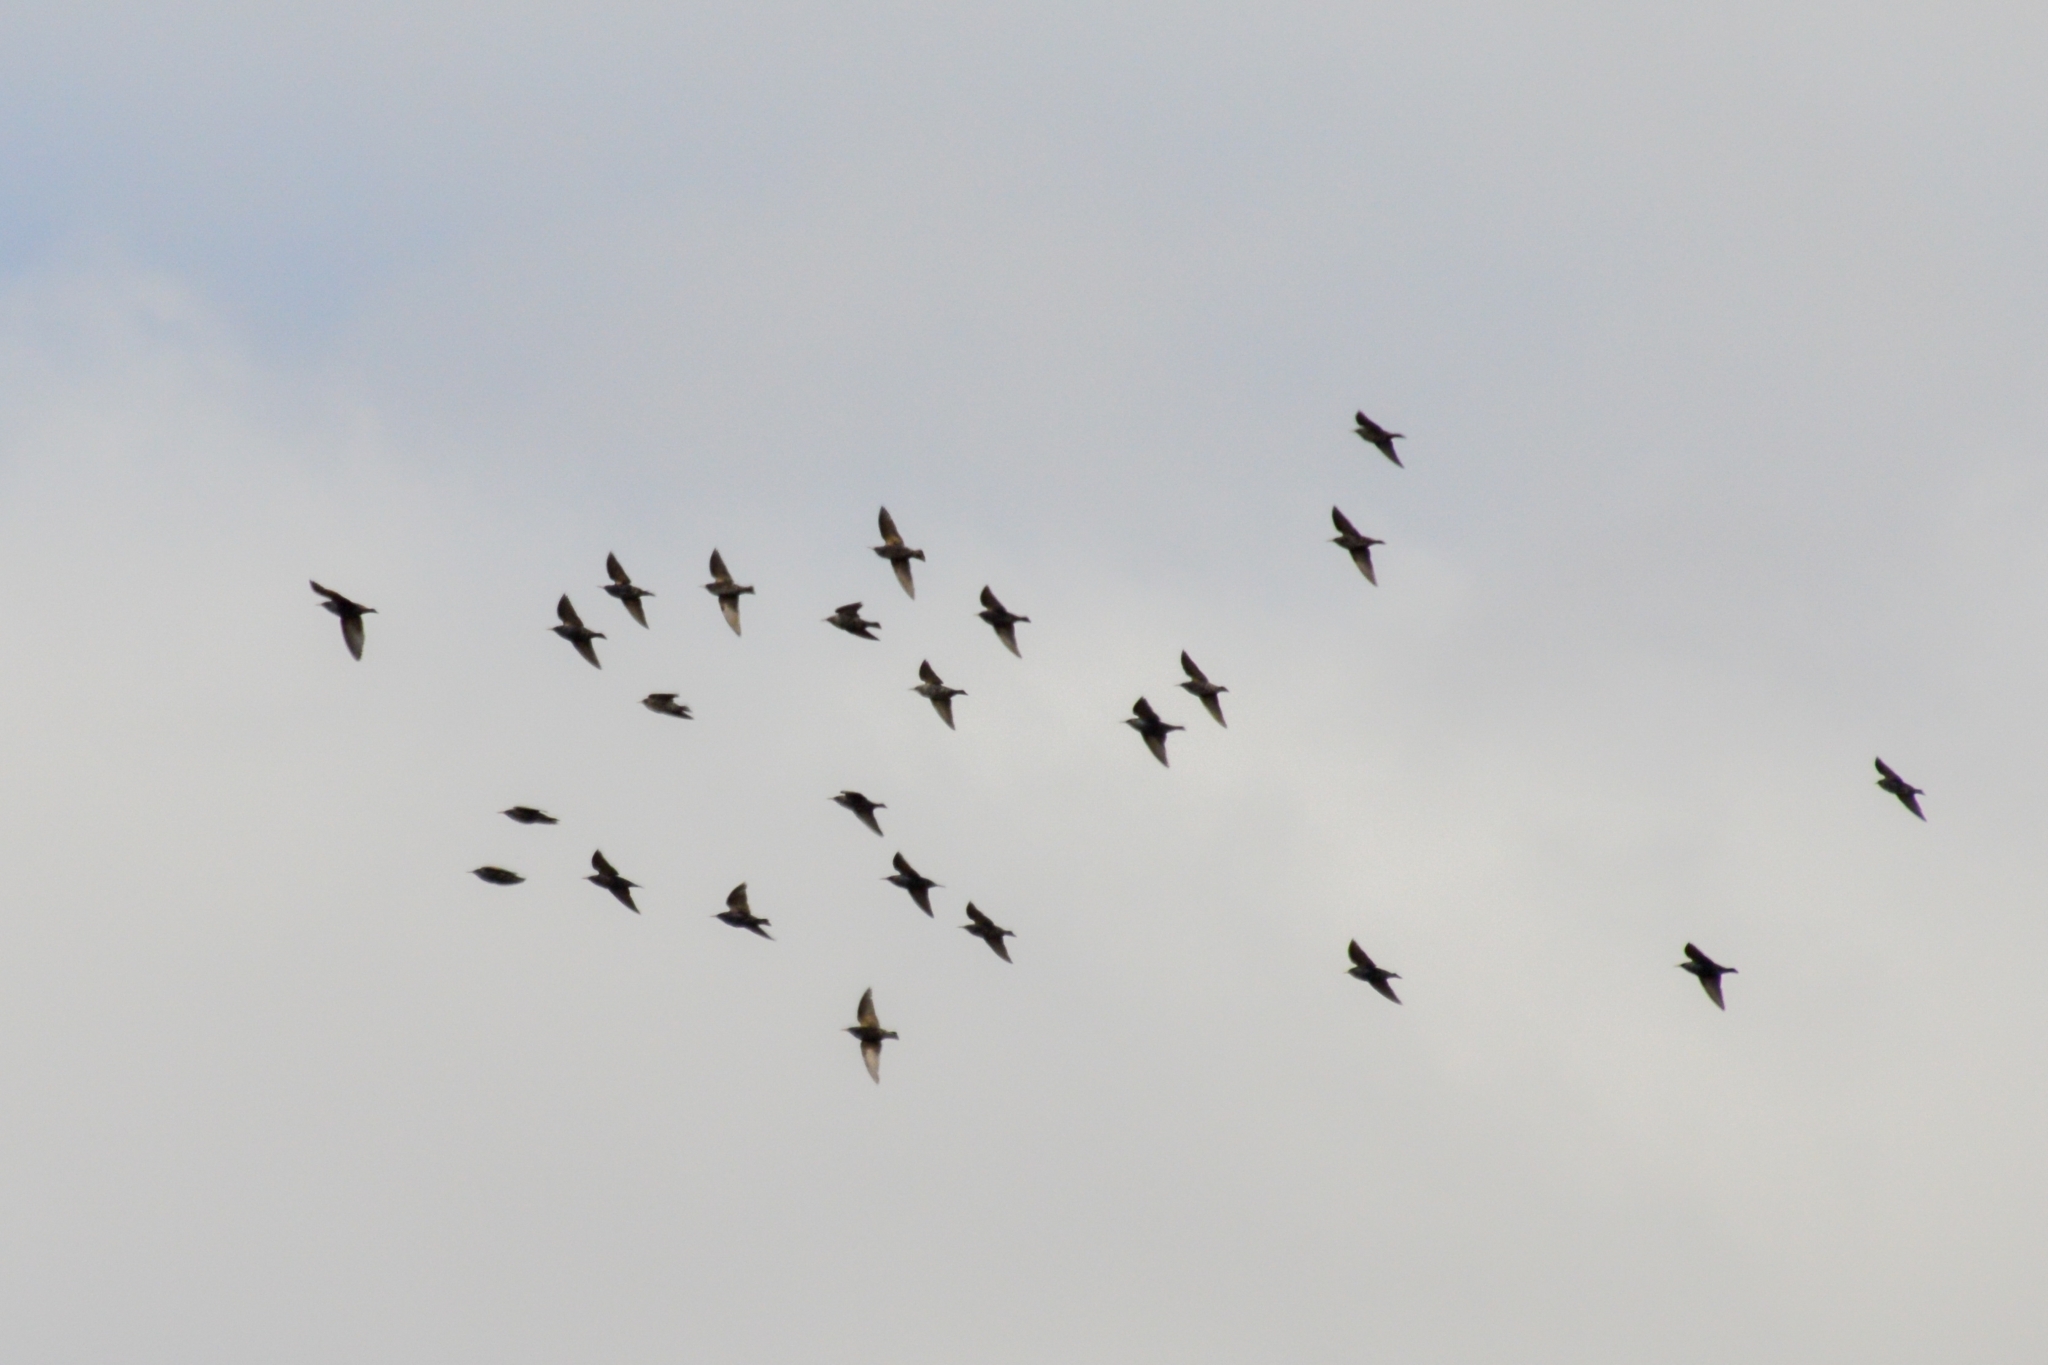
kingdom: Animalia
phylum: Chordata
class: Aves
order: Passeriformes
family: Sturnidae
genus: Sturnus
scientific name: Sturnus vulgaris
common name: Common starling
